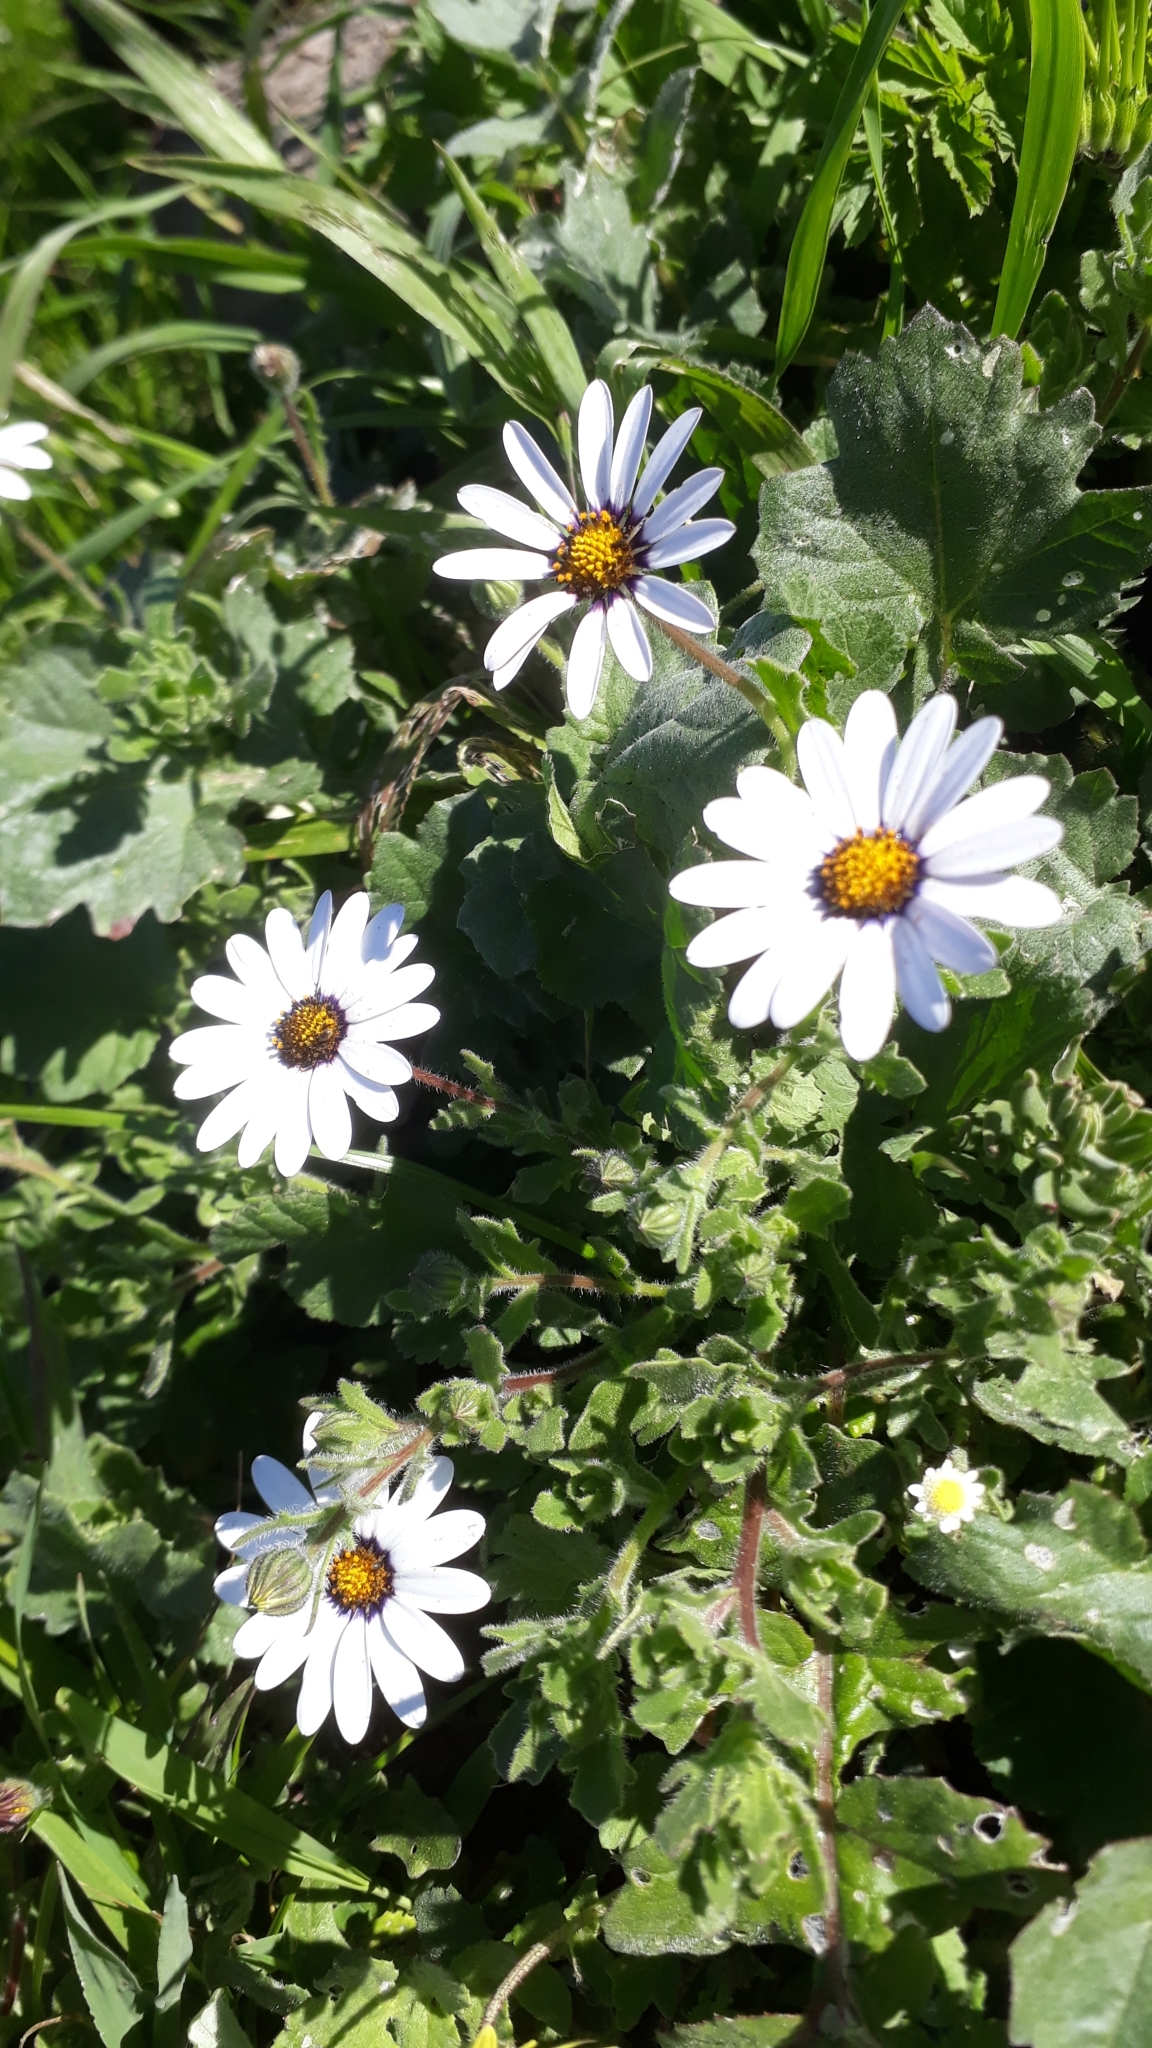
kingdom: Plantae
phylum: Tracheophyta
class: Magnoliopsida
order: Asterales
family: Asteraceae
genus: Dimorphotheca
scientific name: Dimorphotheca pluvialis
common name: Weather prophet
